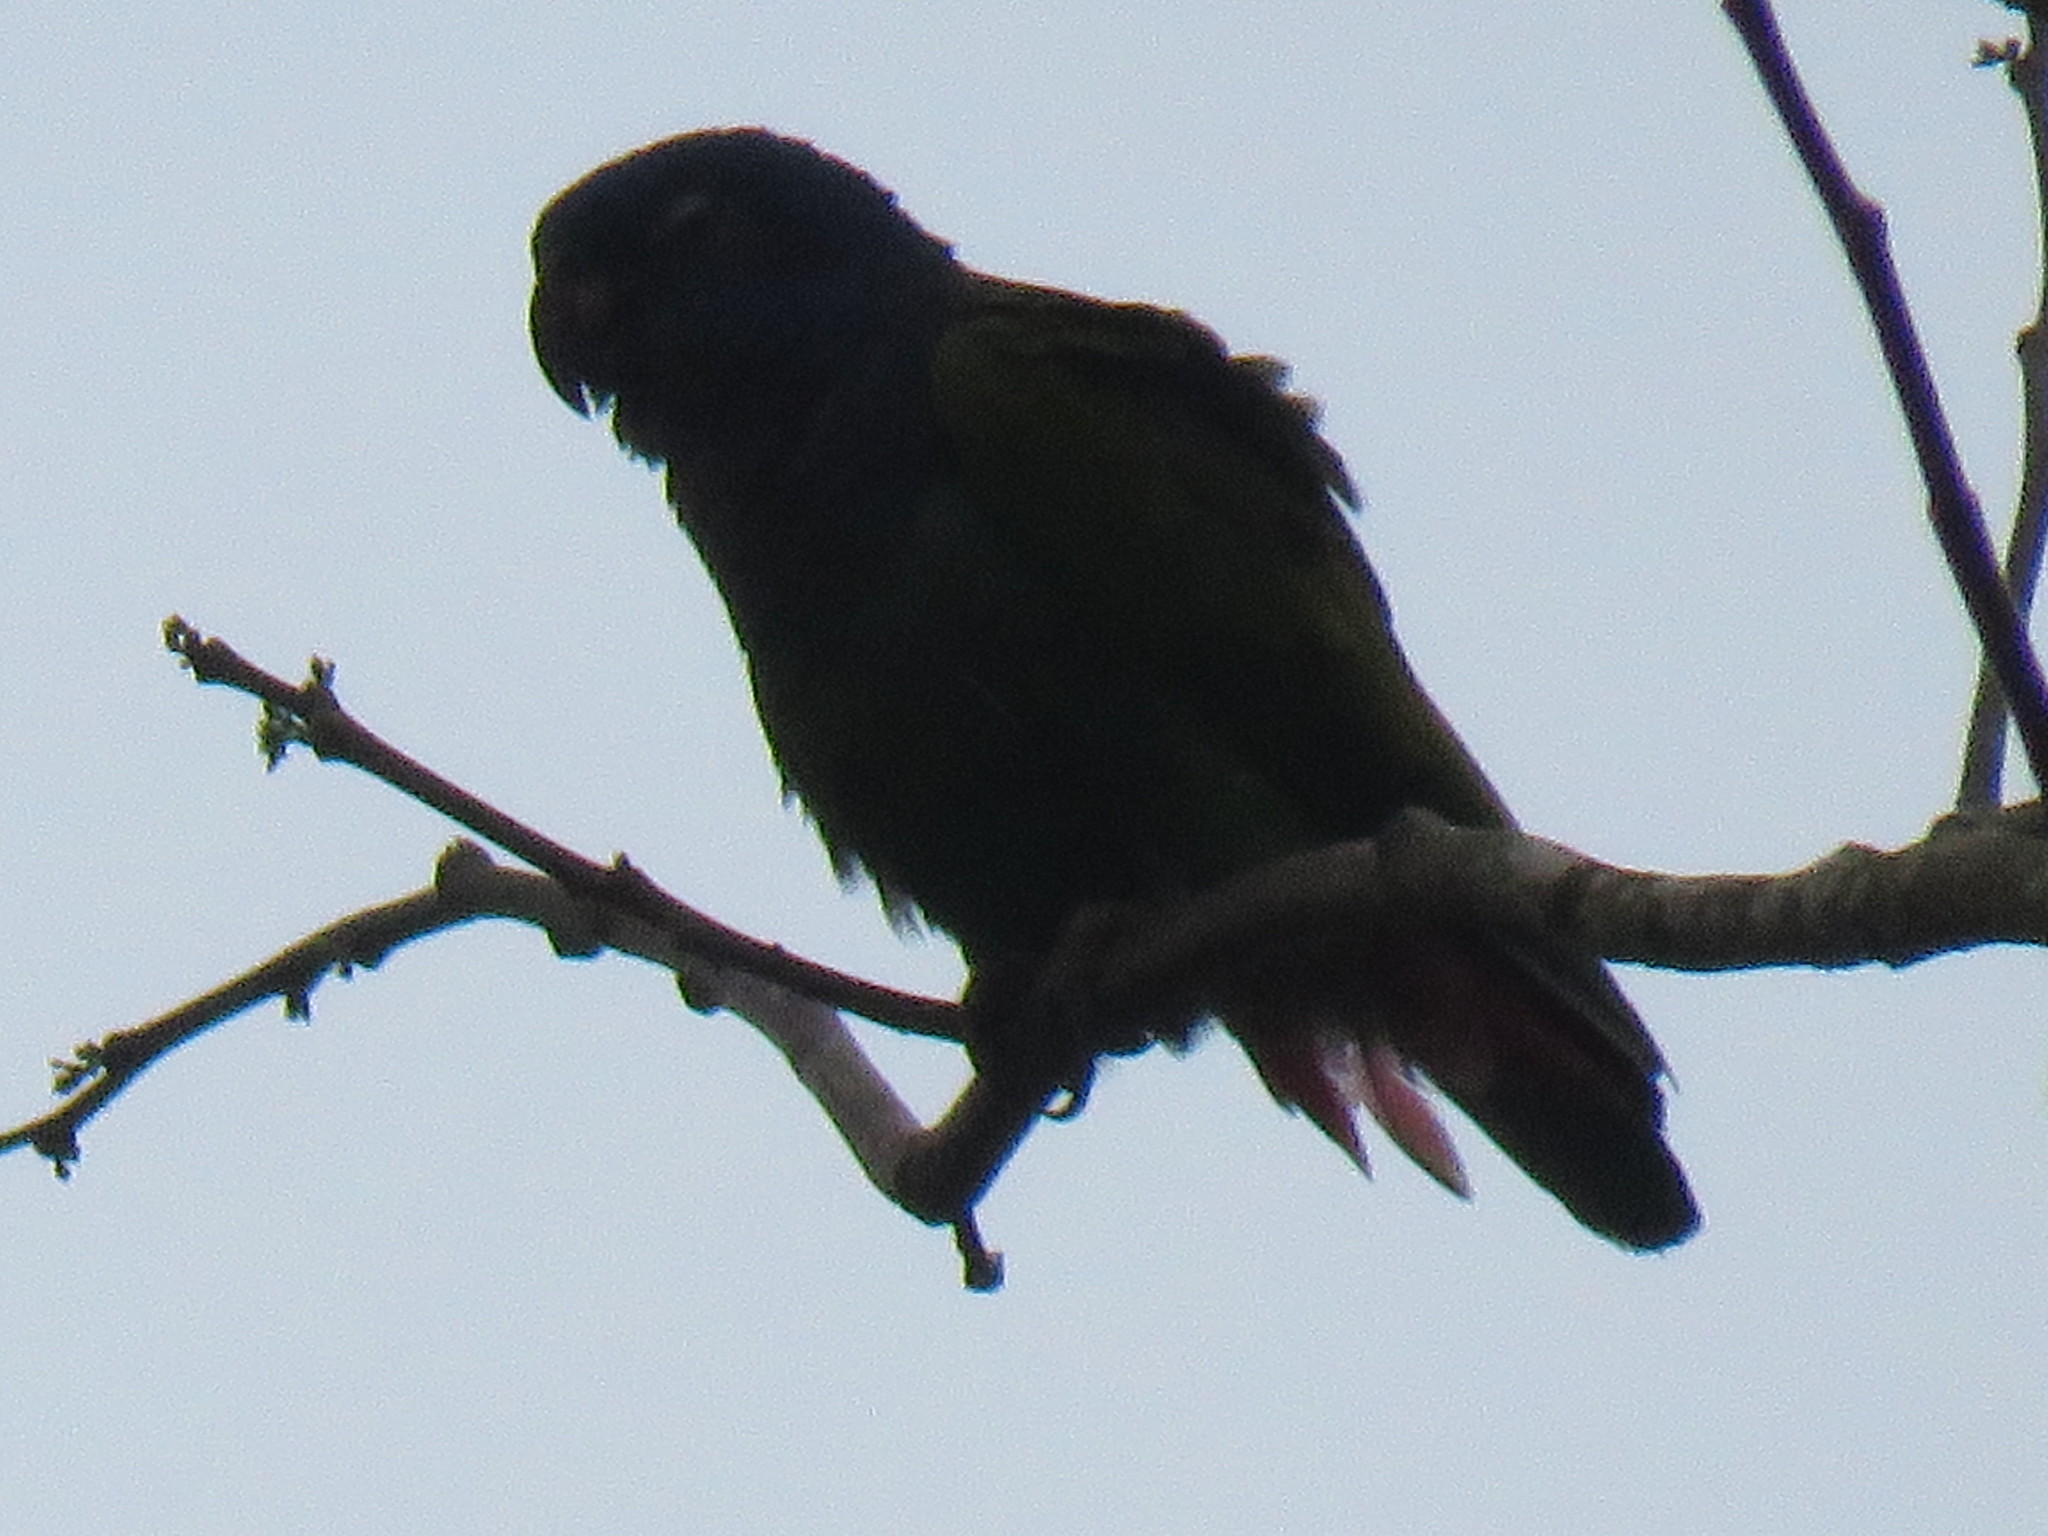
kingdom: Animalia
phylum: Chordata
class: Aves
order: Psittaciformes
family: Psittacidae
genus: Pionus
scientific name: Pionus menstruus
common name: Blue-headed parrot
